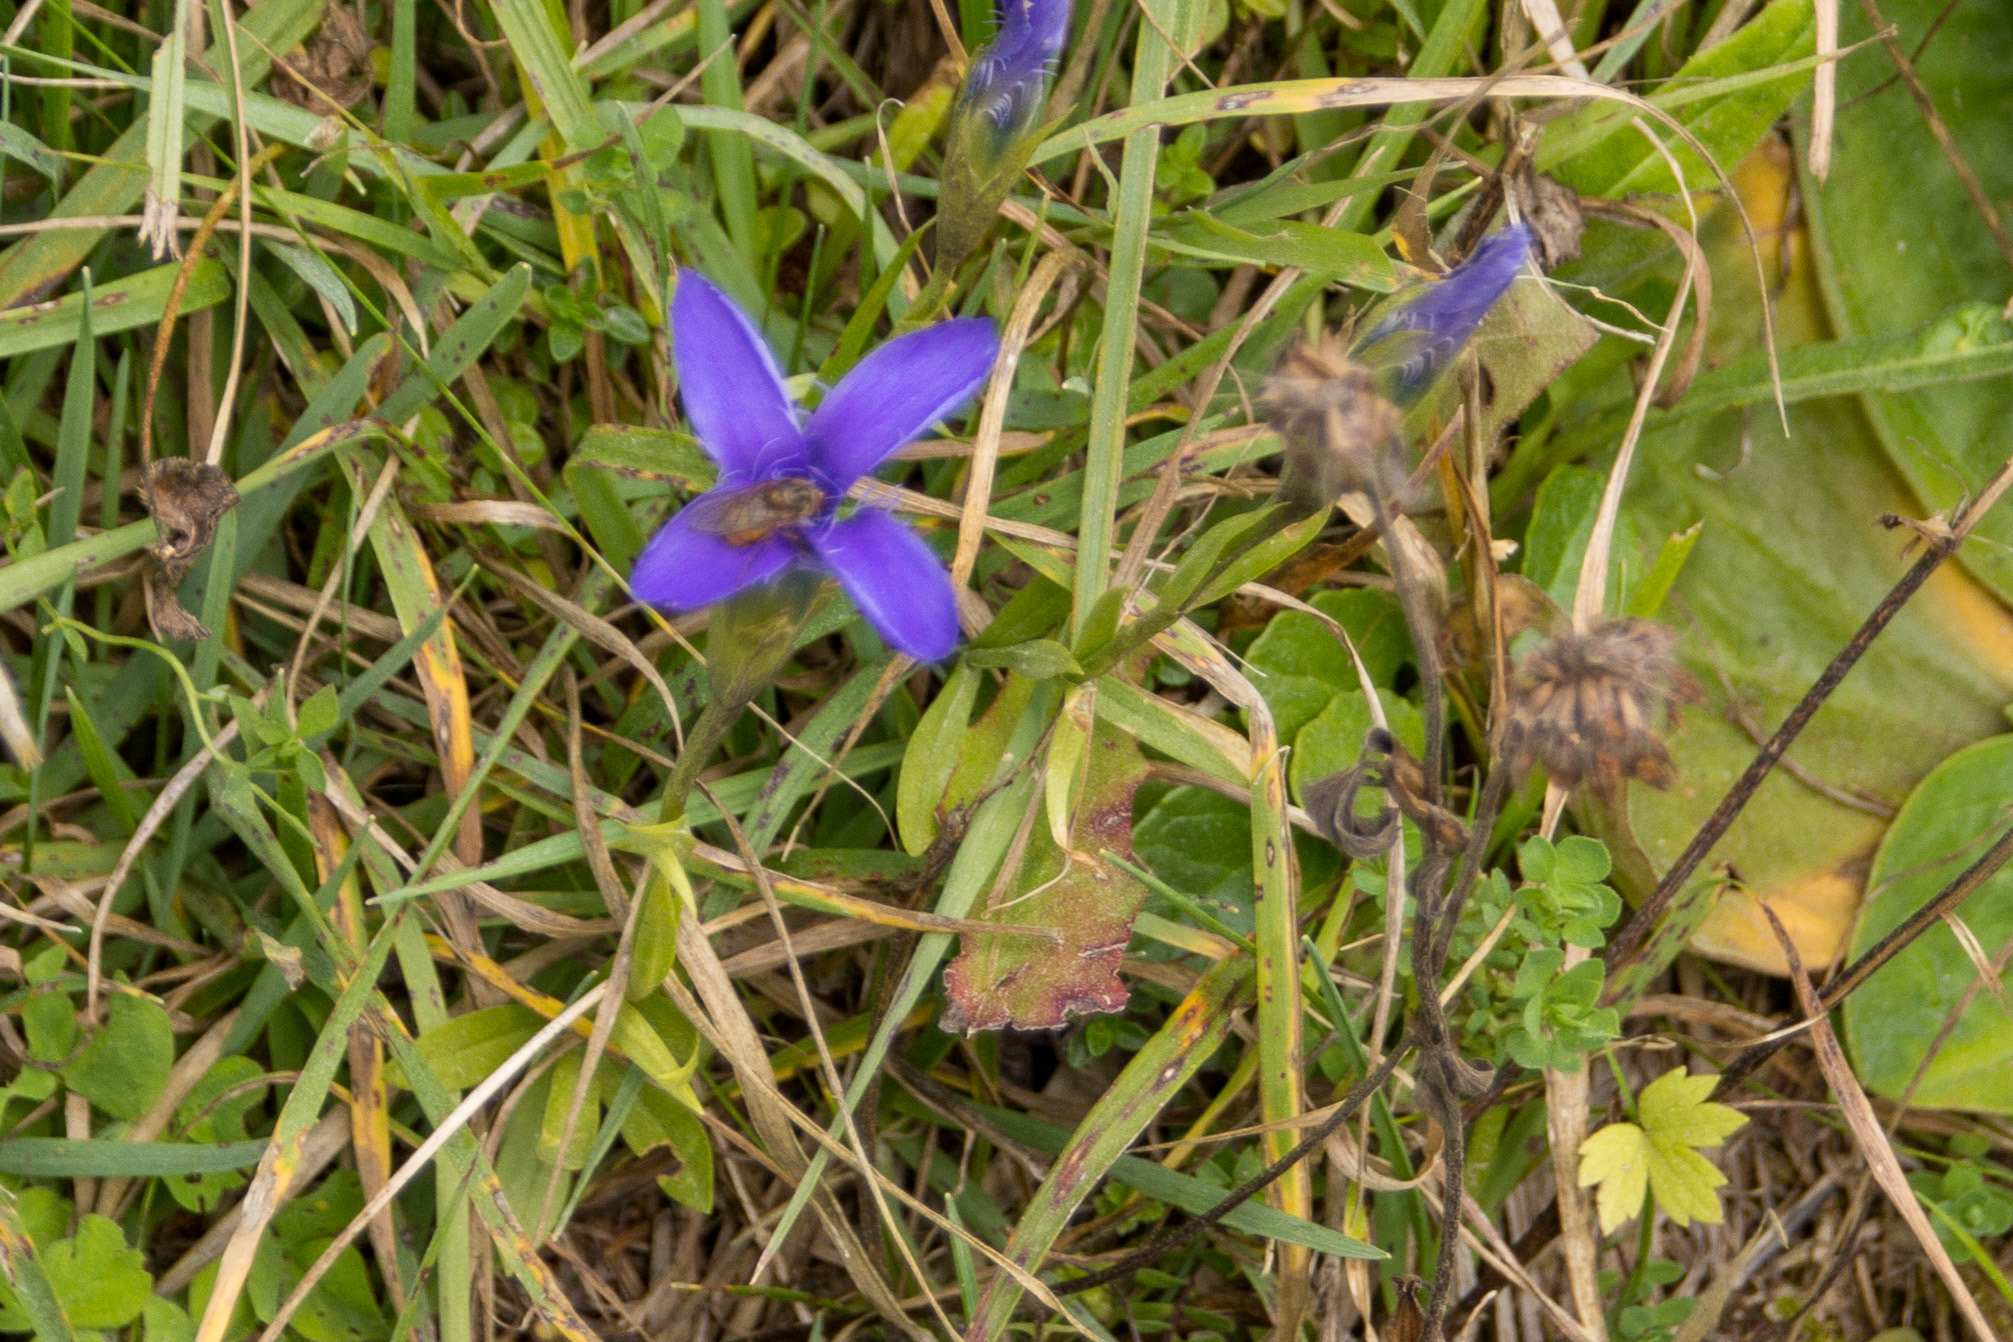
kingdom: Plantae
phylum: Tracheophyta
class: Magnoliopsida
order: Gentianales
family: Gentianaceae
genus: Gentianopsis
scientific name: Gentianopsis ciliata
